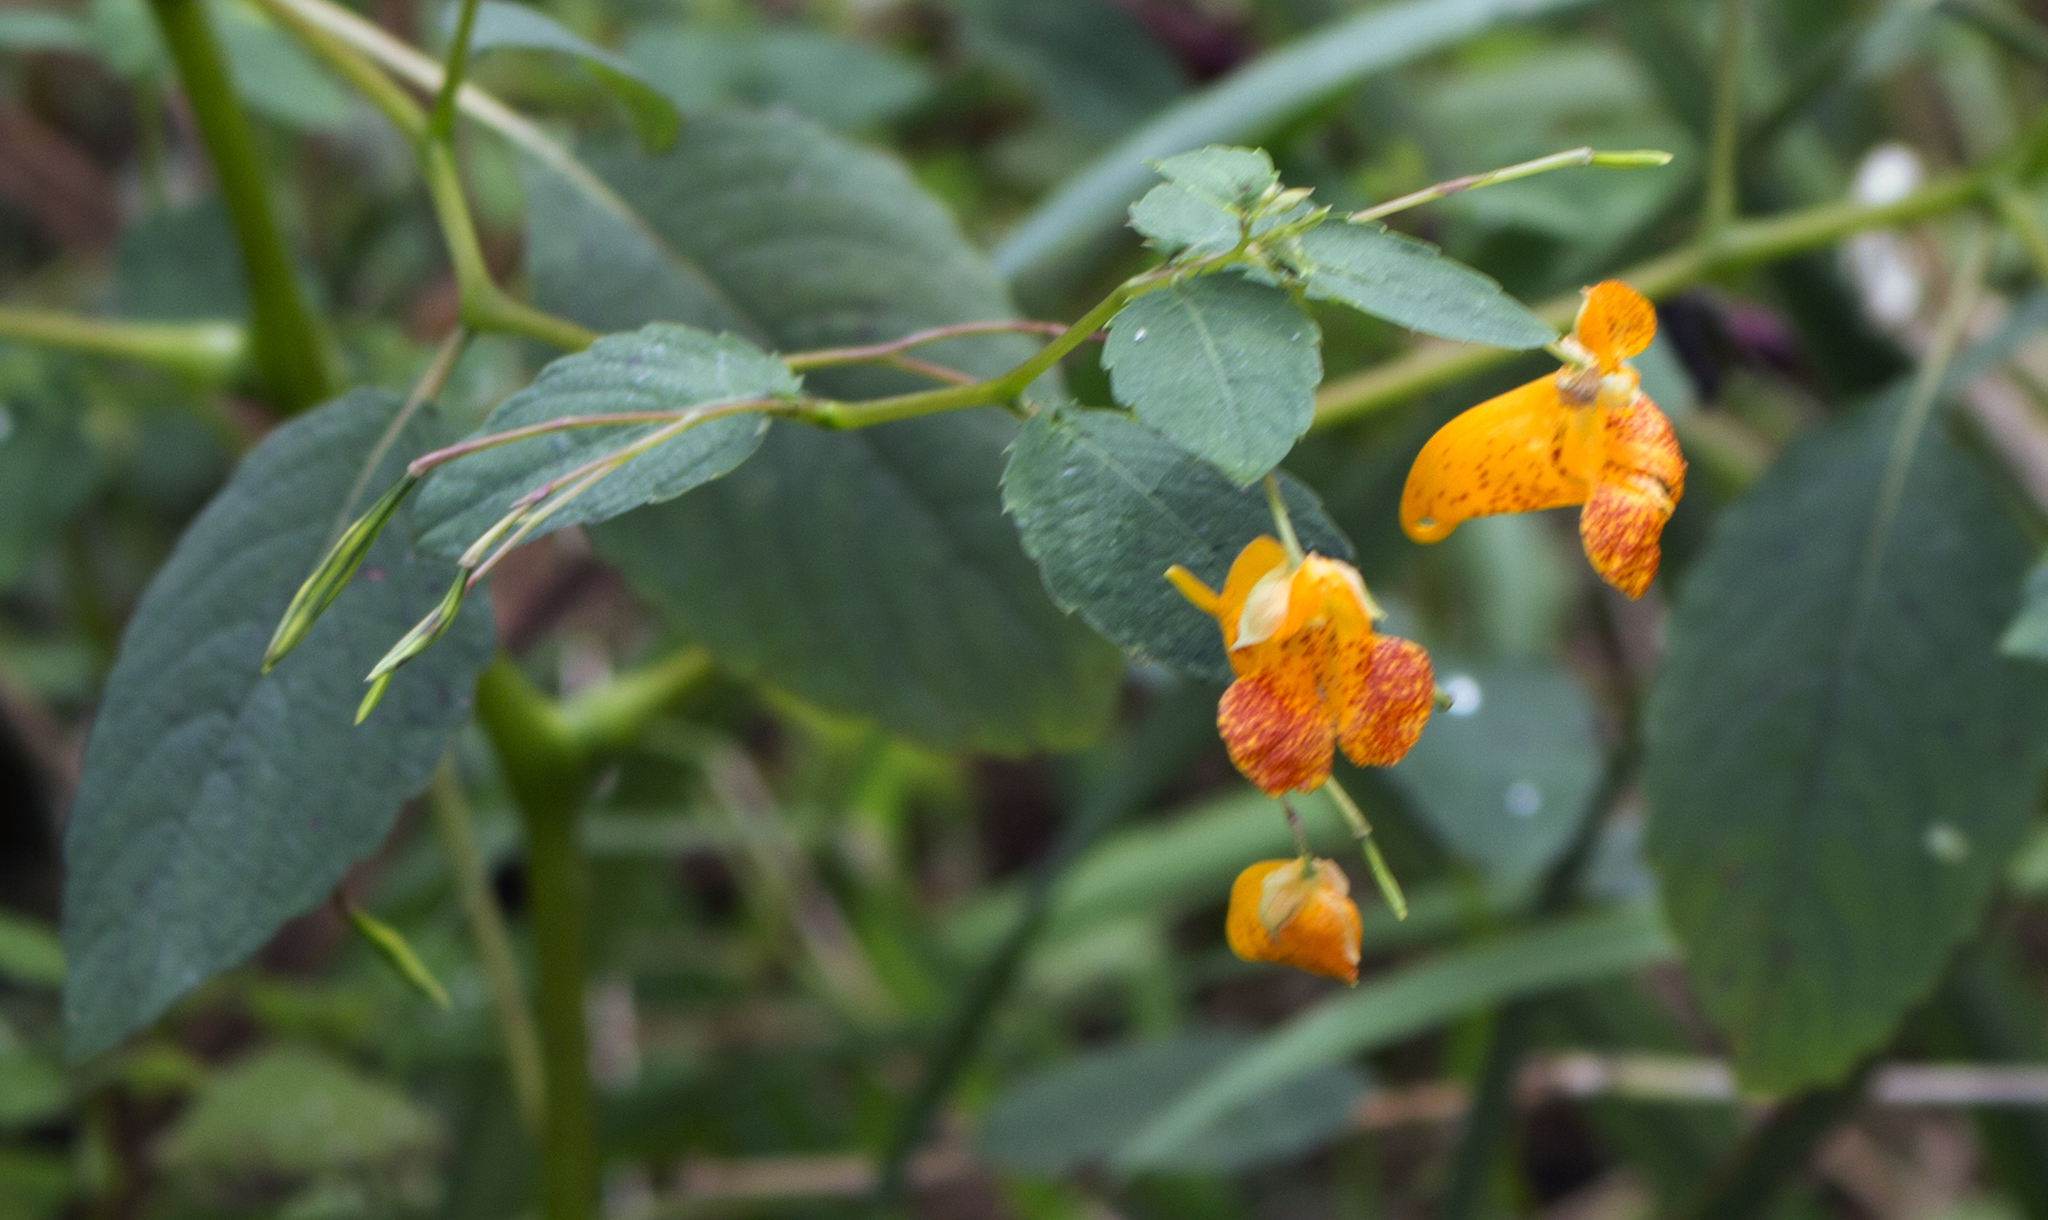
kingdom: Plantae
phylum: Tracheophyta
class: Magnoliopsida
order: Ericales
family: Balsaminaceae
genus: Impatiens
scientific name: Impatiens capensis
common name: Orange balsam
